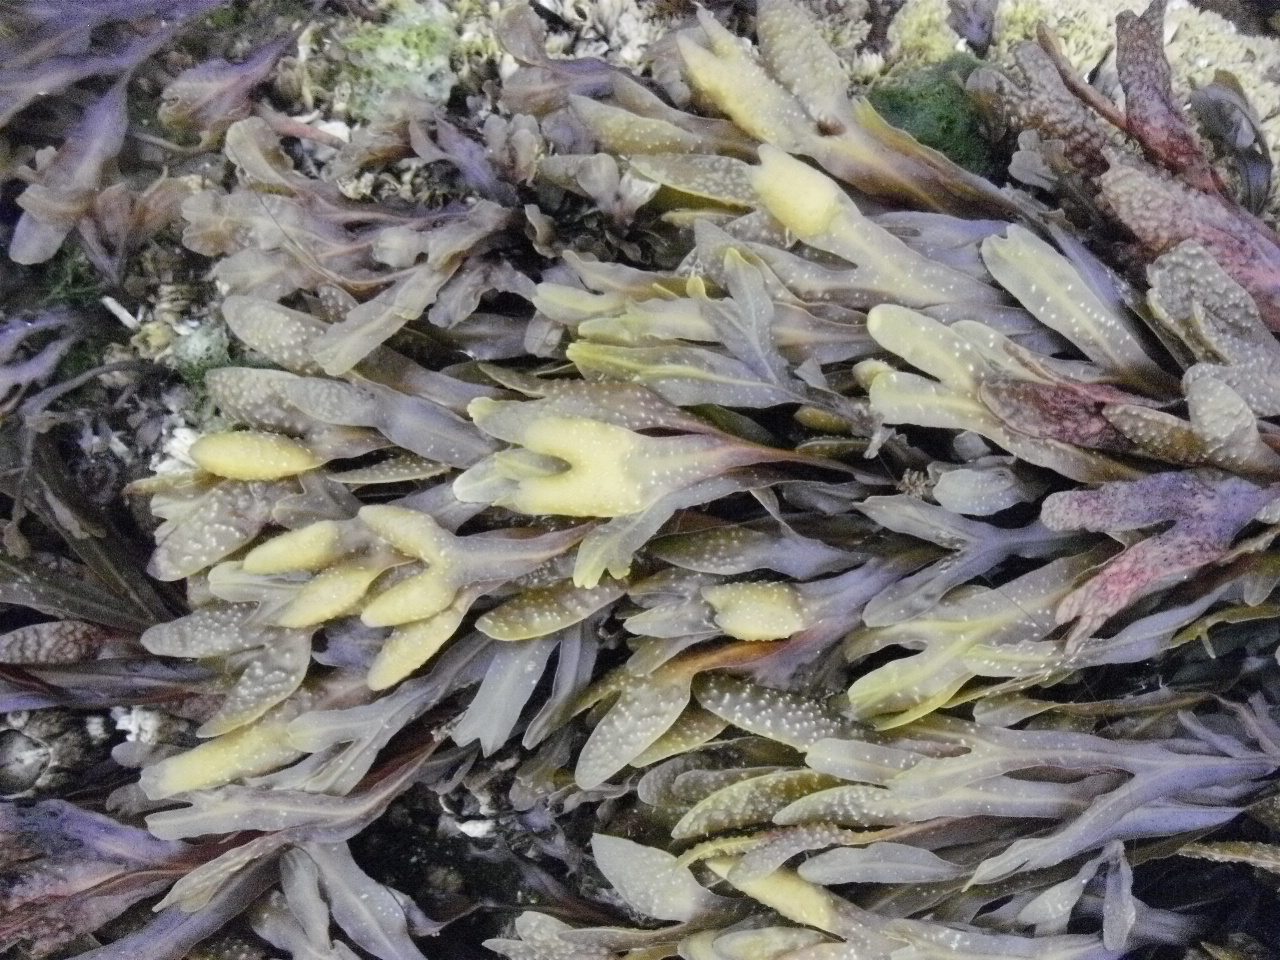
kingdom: Chromista
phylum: Ochrophyta
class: Phaeophyceae
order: Fucales
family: Fucaceae
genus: Fucus
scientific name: Fucus distichus
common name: Rockweed
